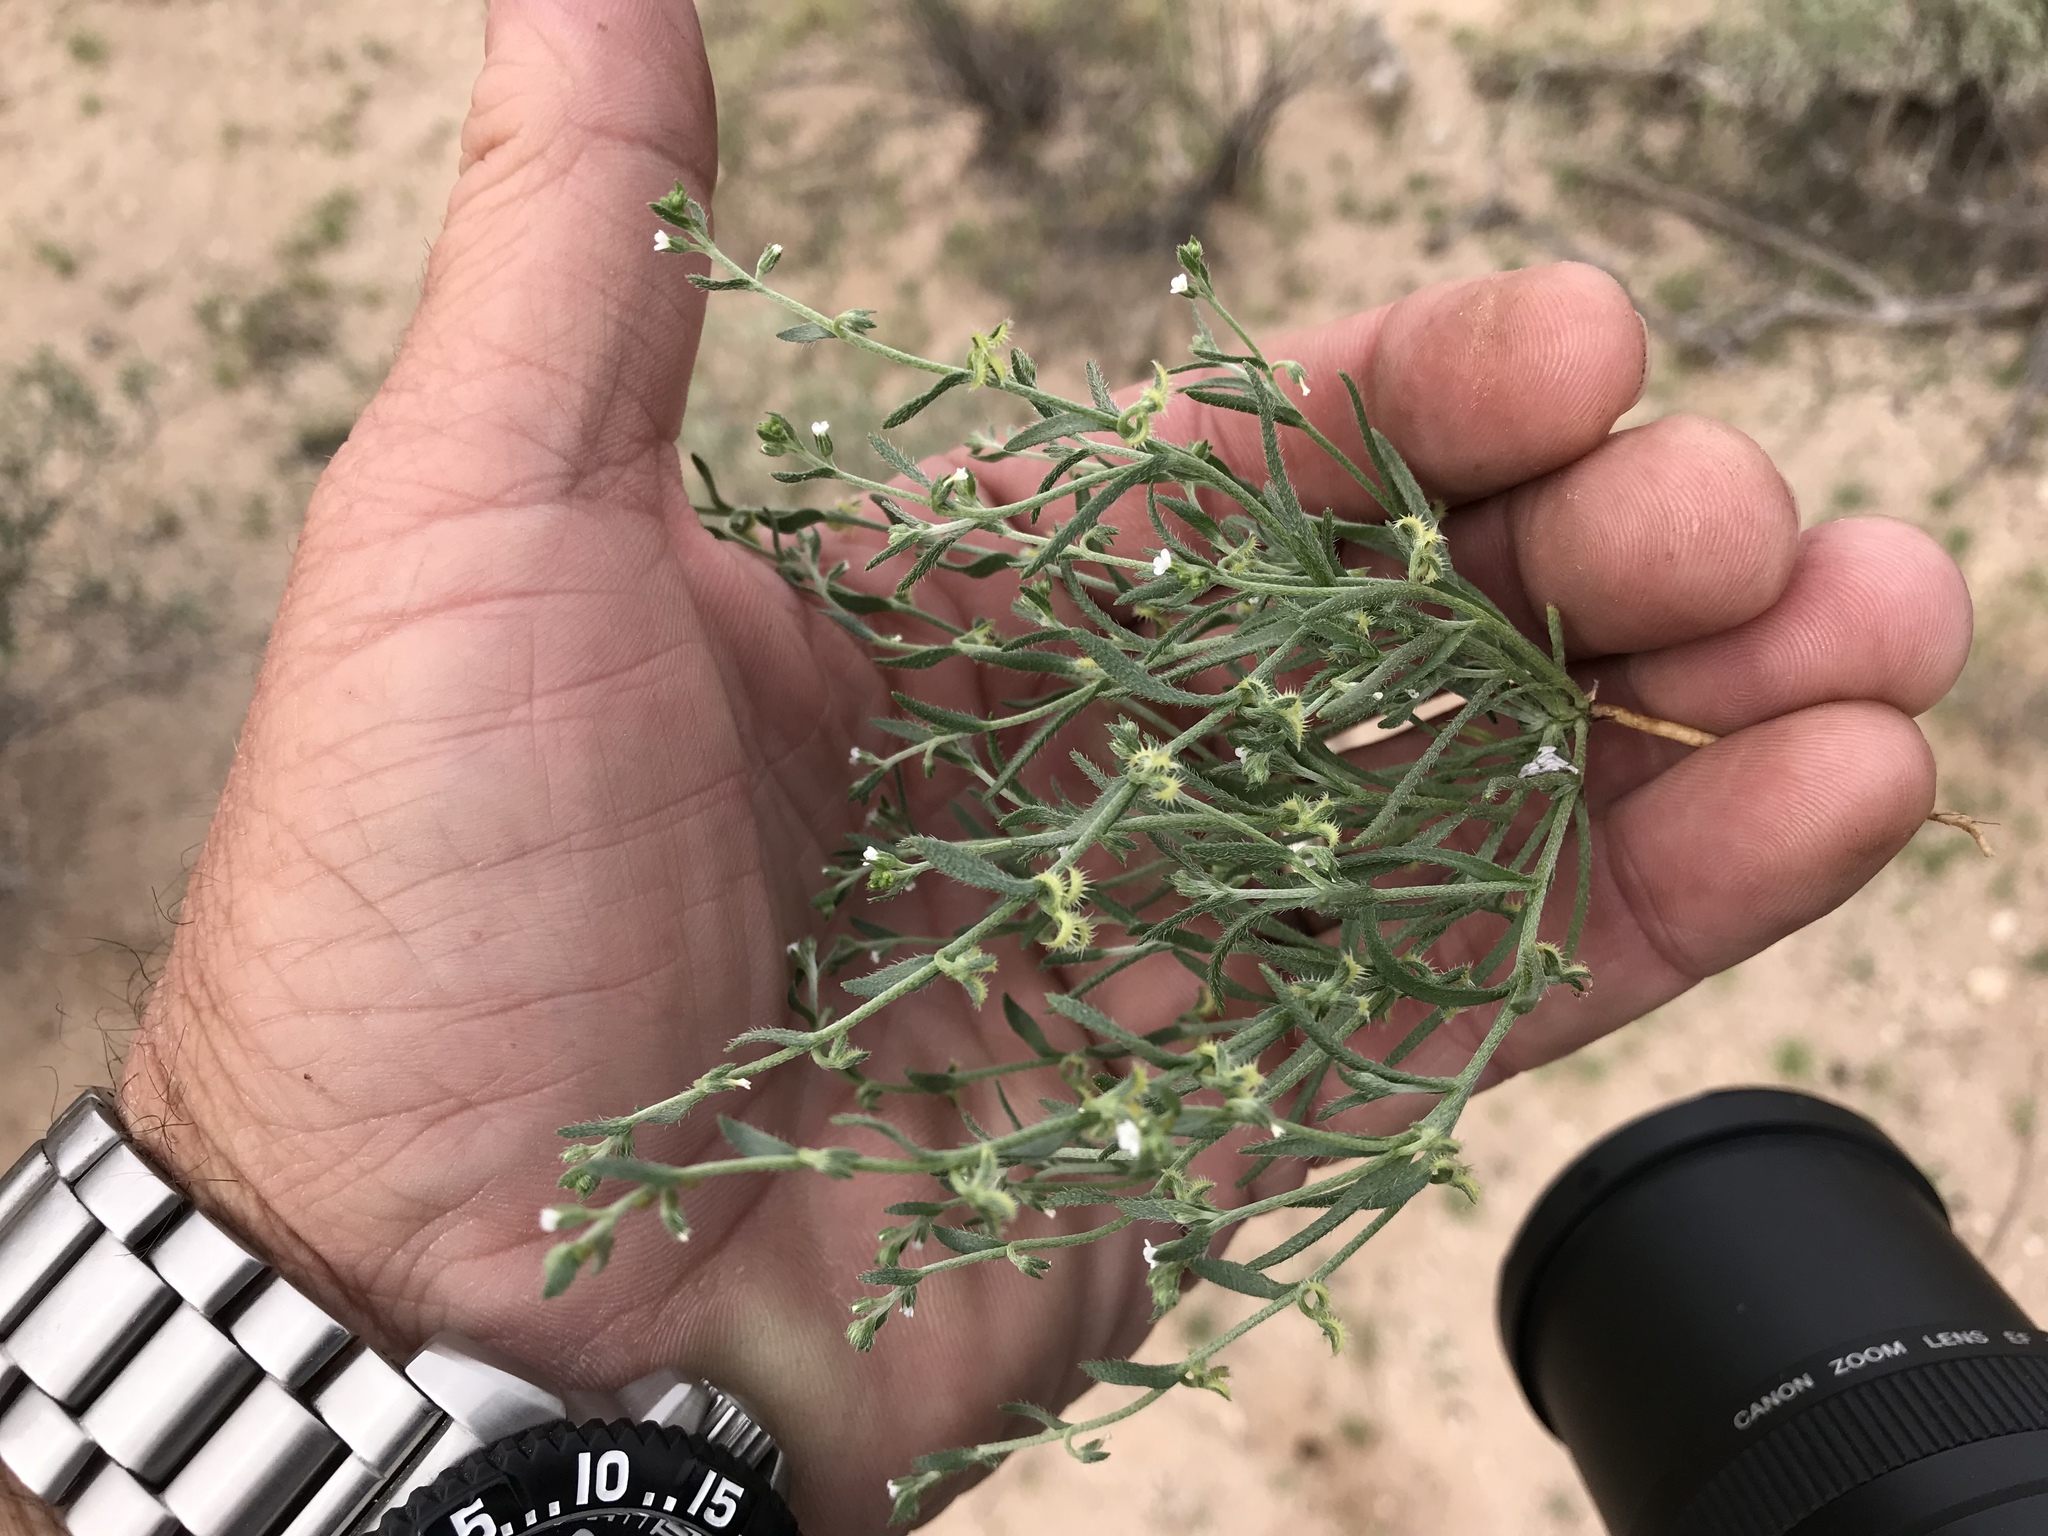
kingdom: Plantae
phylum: Tracheophyta
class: Magnoliopsida
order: Boraginales
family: Boraginaceae
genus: Pectocarya
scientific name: Pectocarya recurvata
